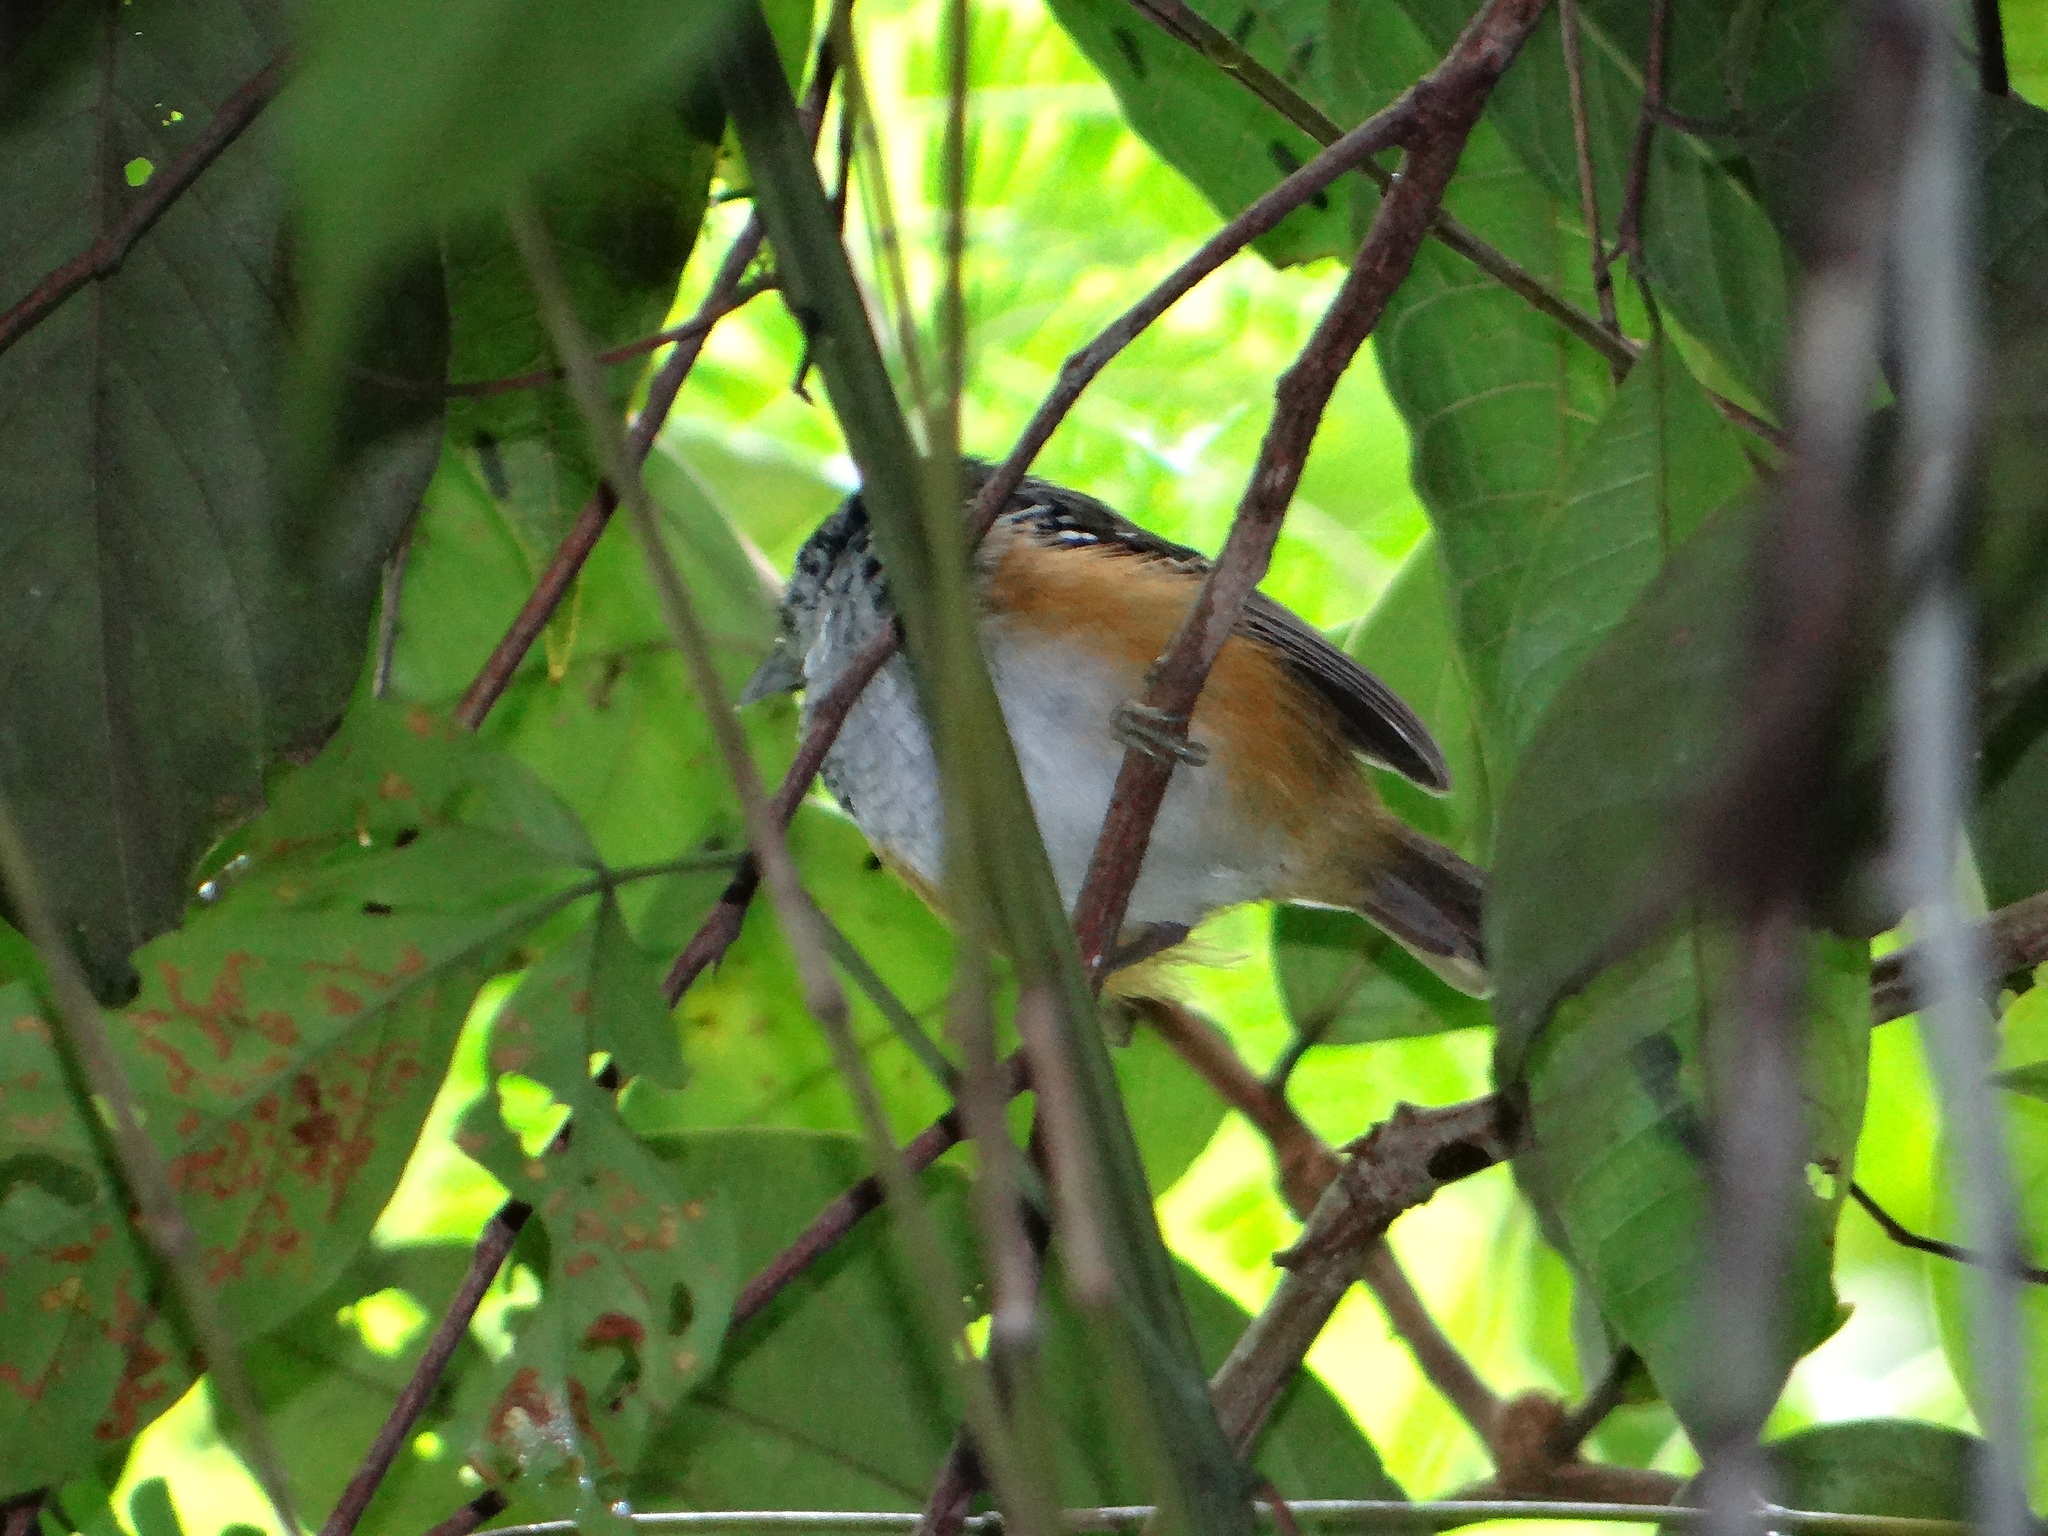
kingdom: Animalia
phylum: Chordata
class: Aves
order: Passeriformes
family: Thamnophilidae
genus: Hypocnemis
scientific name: Hypocnemis peruviana
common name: Peruvian warbling-antbird
